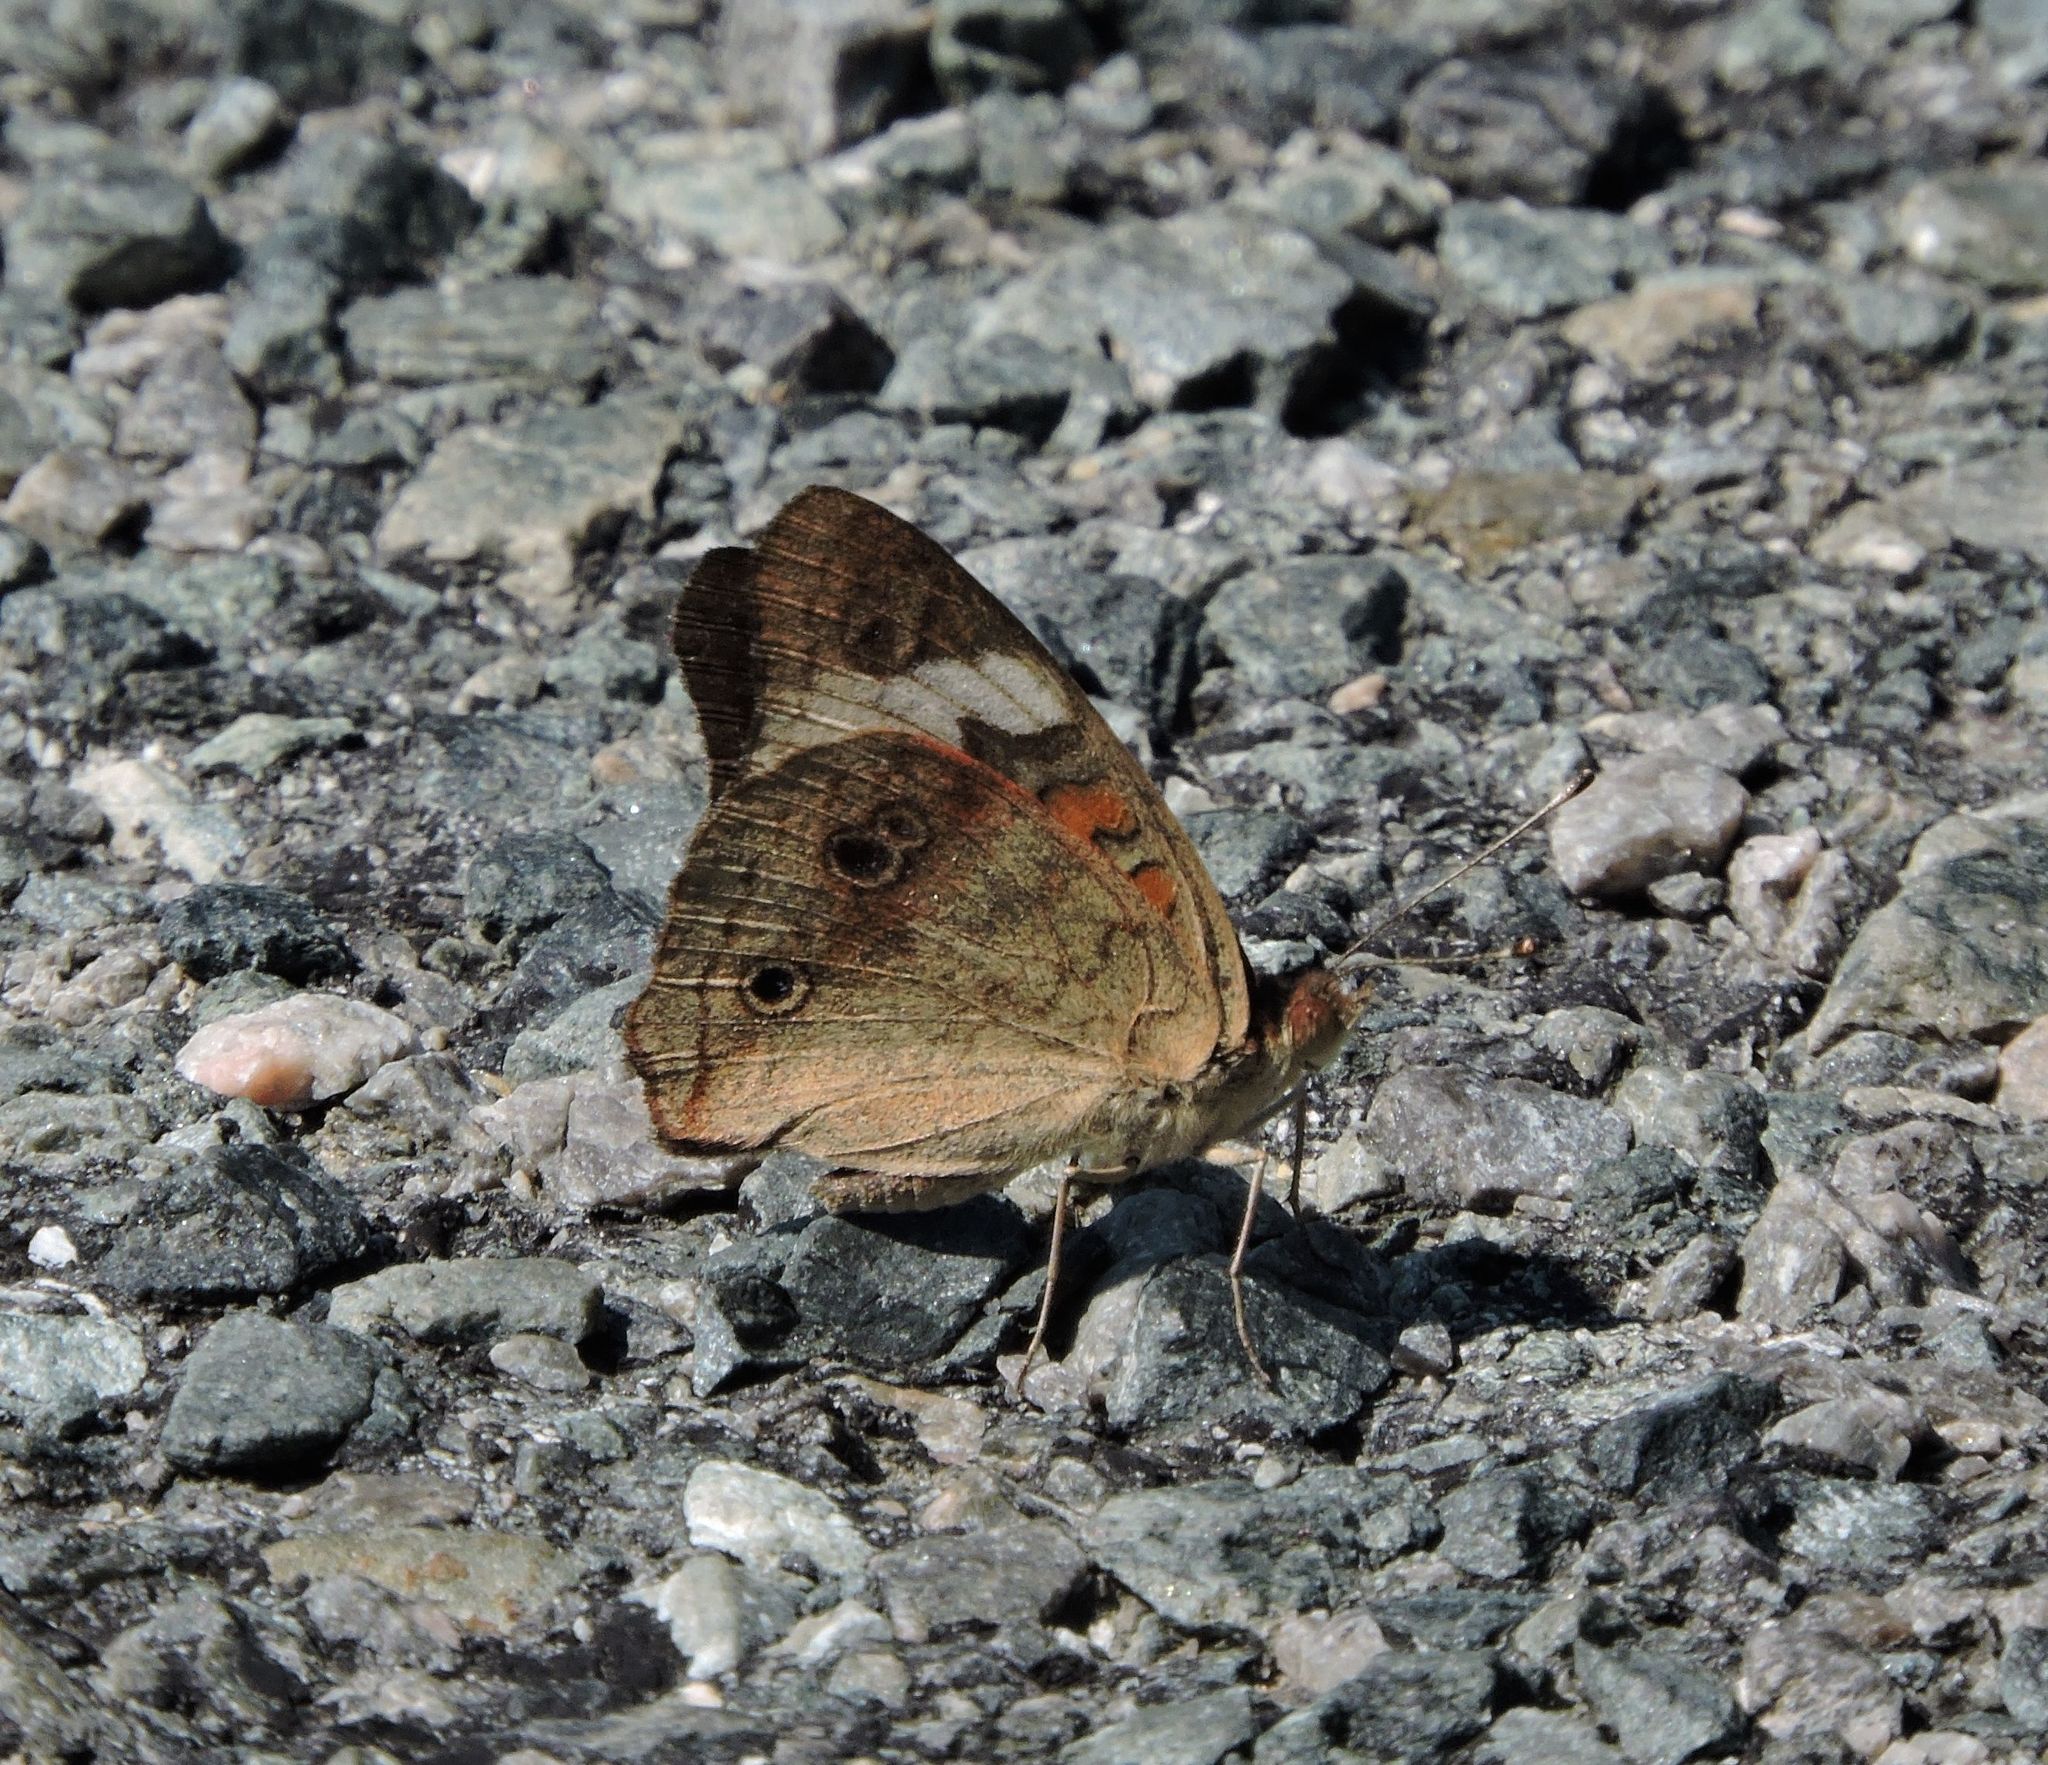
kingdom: Animalia
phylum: Arthropoda
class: Insecta
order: Lepidoptera
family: Nymphalidae
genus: Junonia
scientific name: Junonia coenia
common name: Common buckeye
